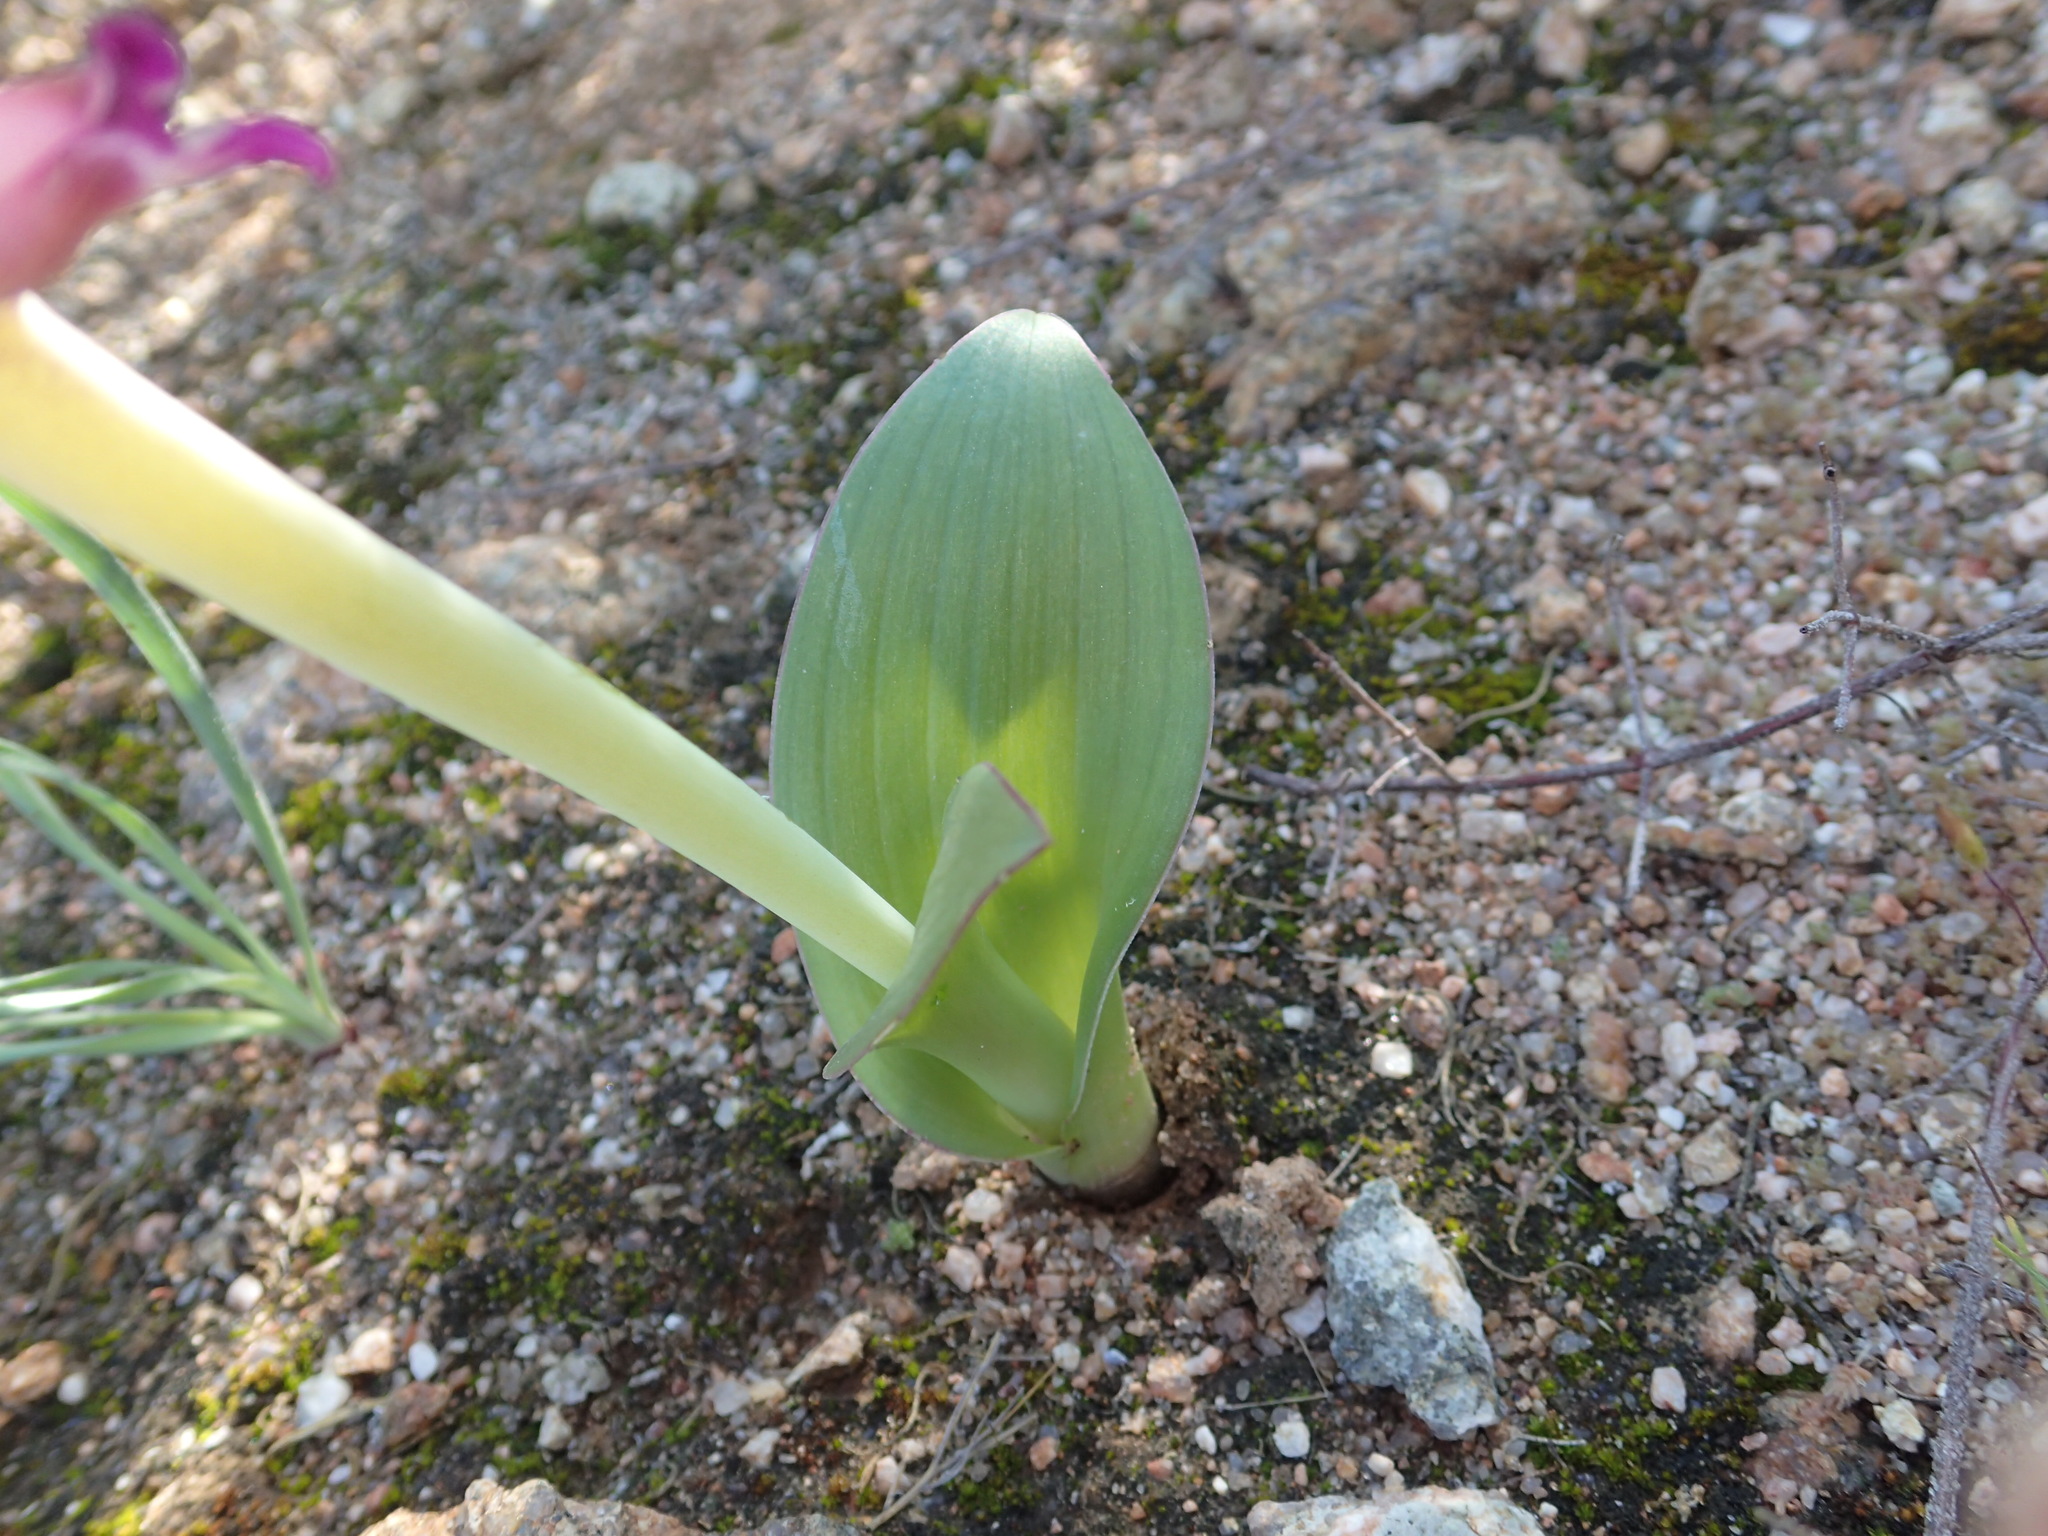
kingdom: Plantae
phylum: Tracheophyta
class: Liliopsida
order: Asparagales
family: Asparagaceae
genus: Lachenalia
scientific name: Lachenalia carnosa
